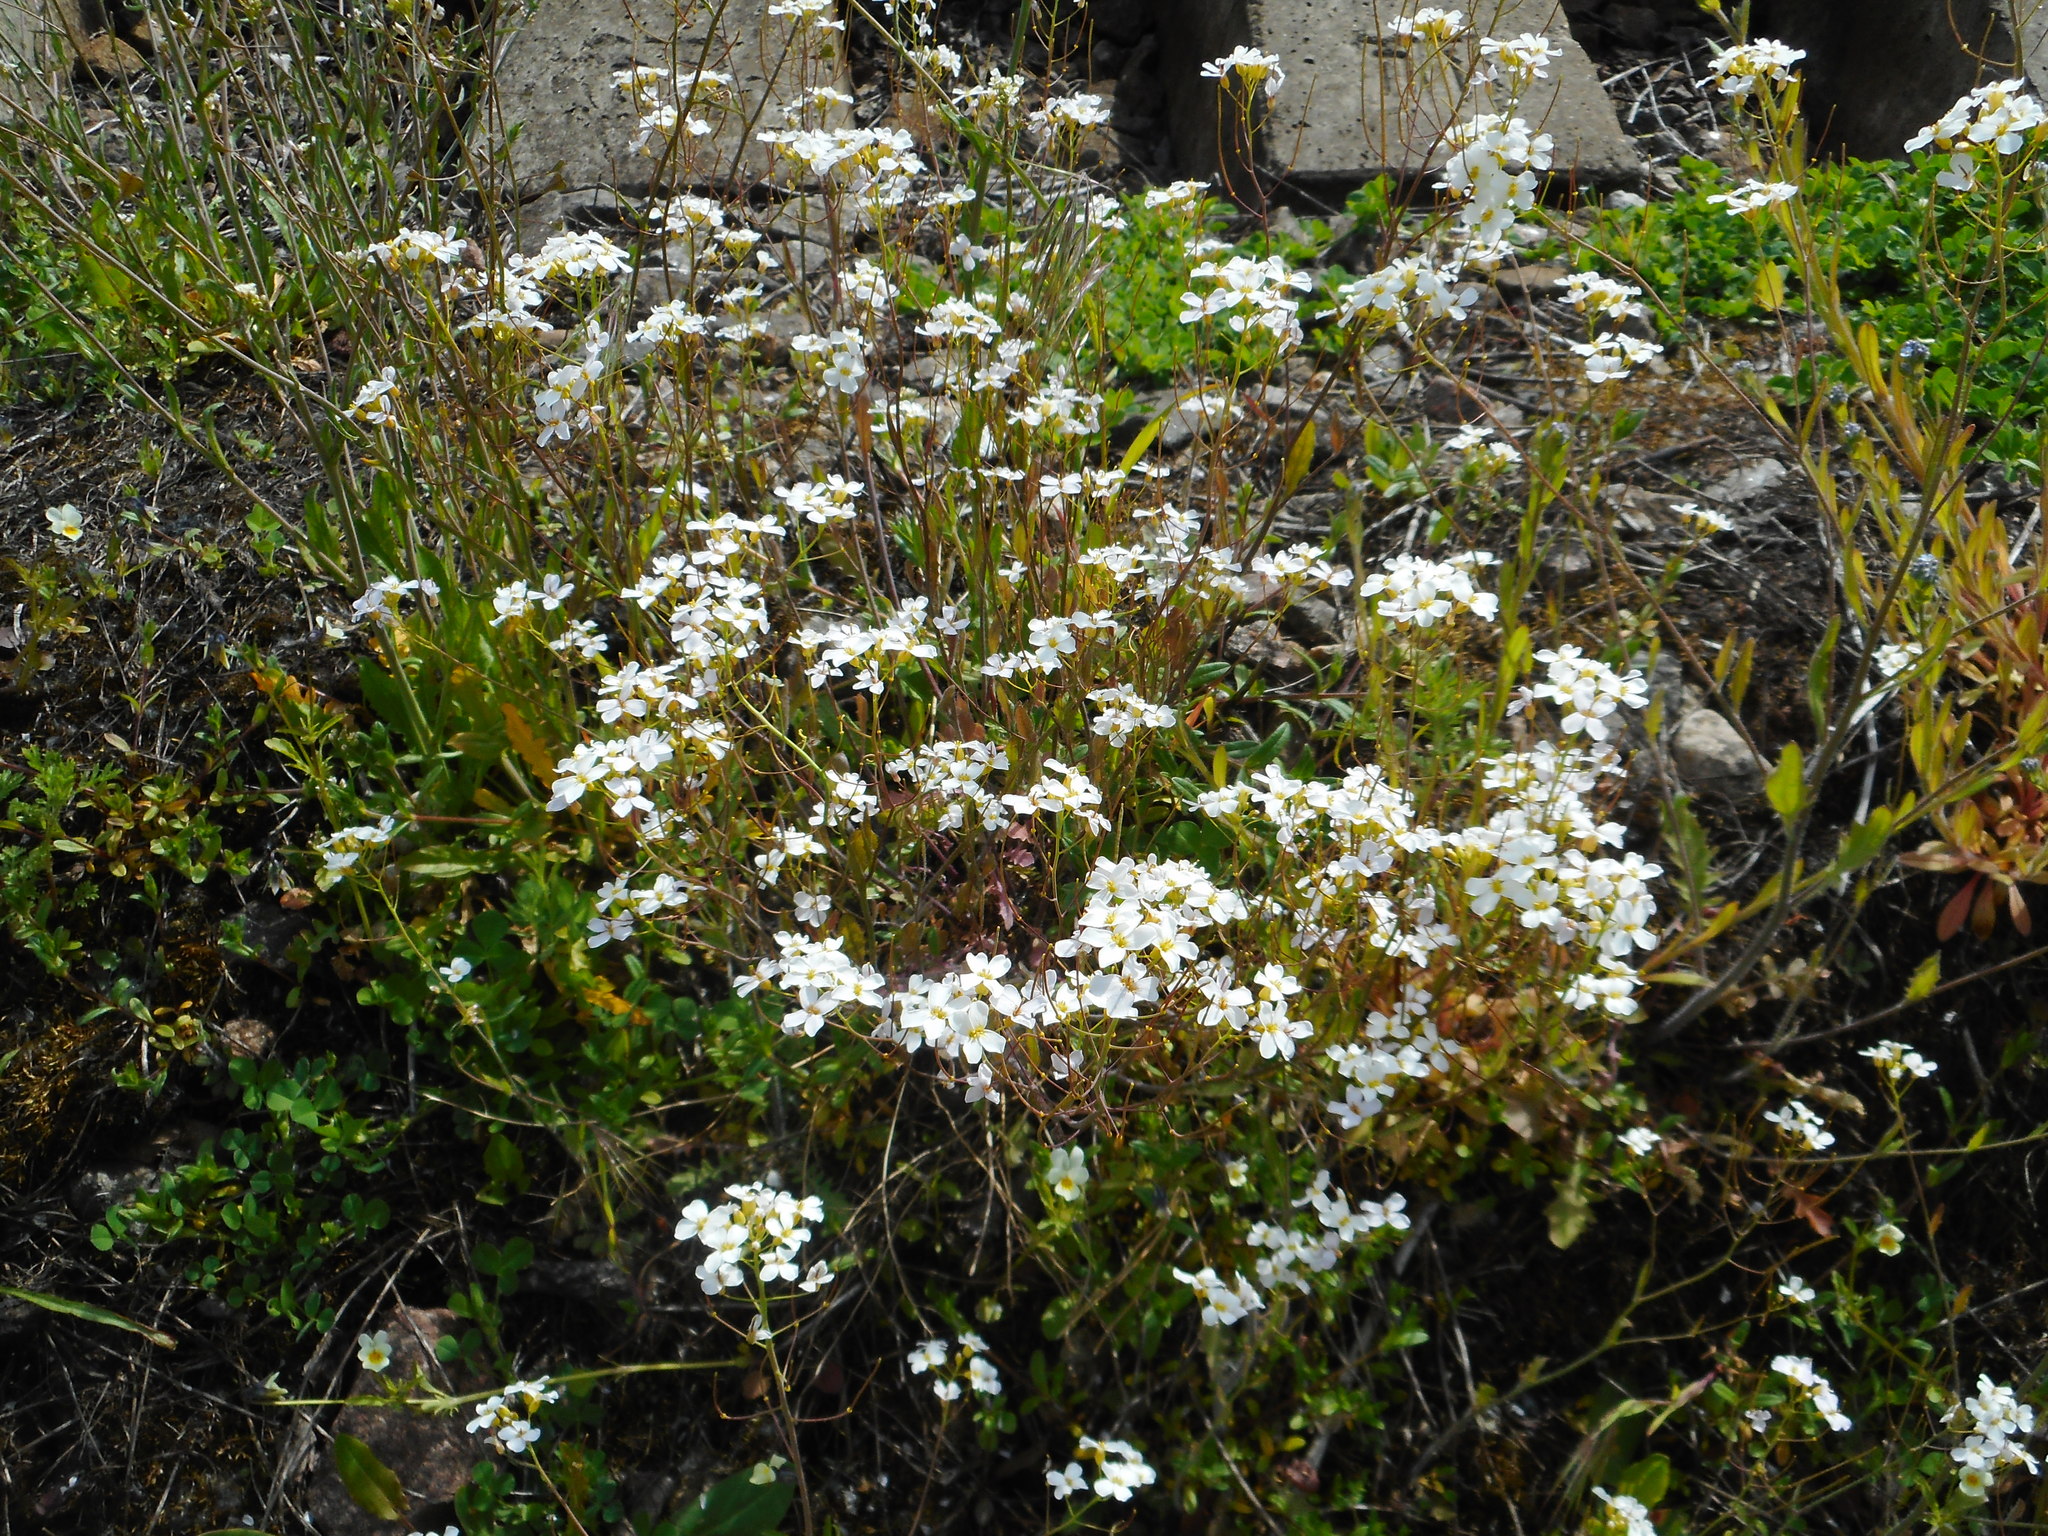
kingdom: Plantae
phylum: Tracheophyta
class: Magnoliopsida
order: Brassicales
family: Brassicaceae
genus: Arabidopsis
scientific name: Arabidopsis arenosa
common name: Sand rock-cress
